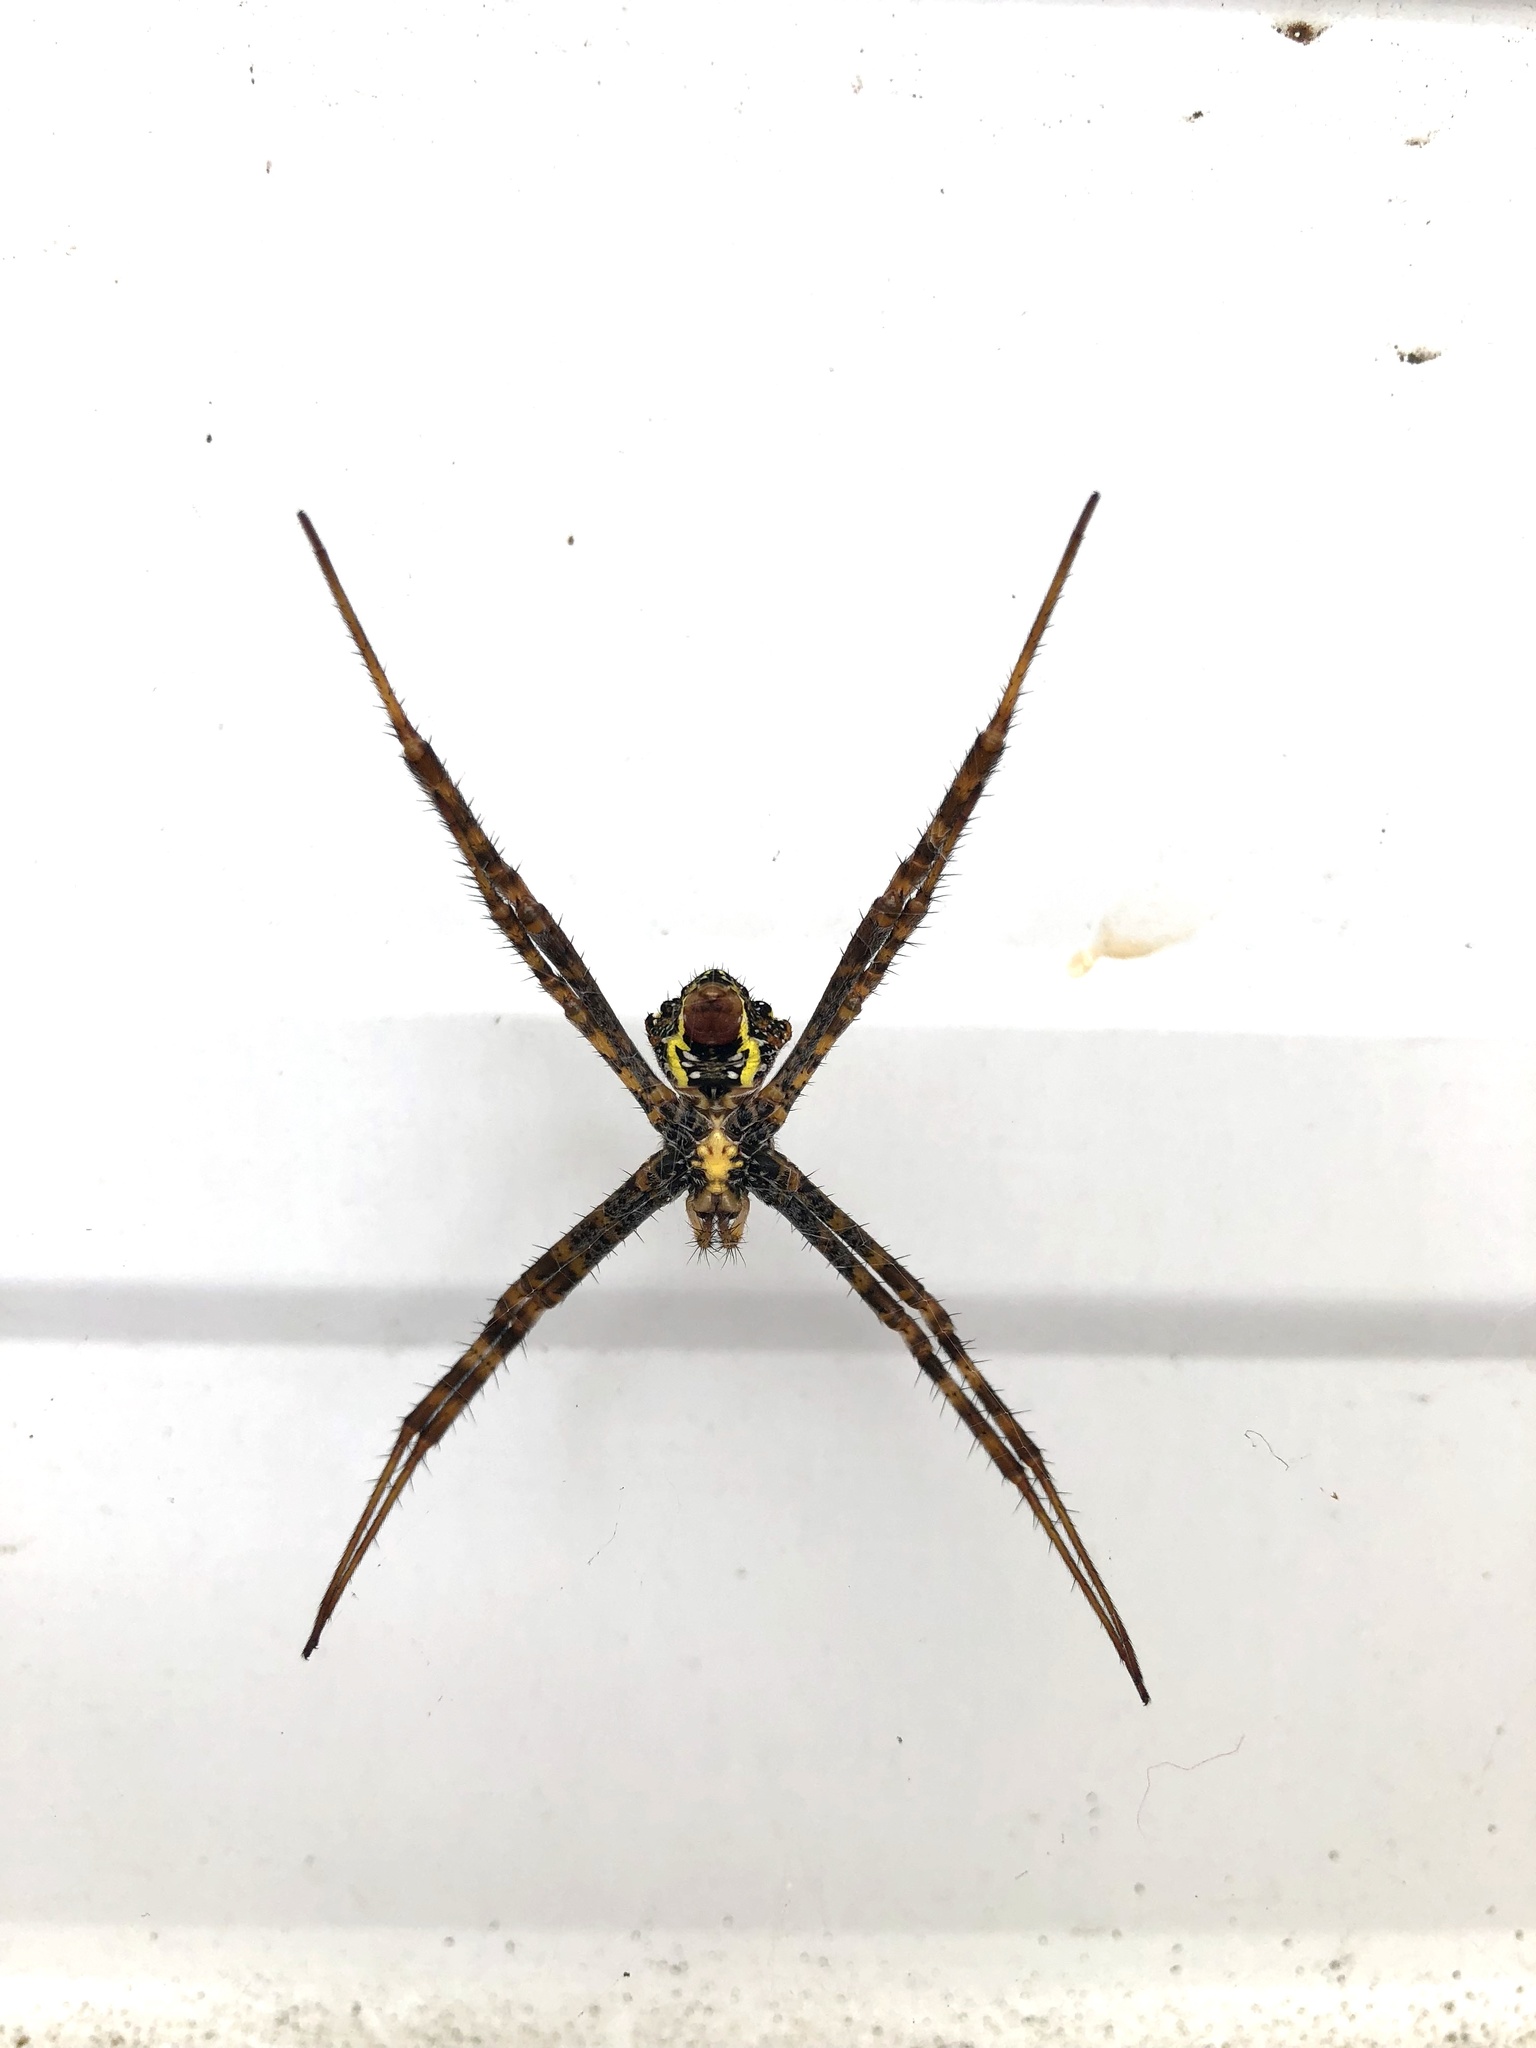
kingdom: Animalia
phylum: Arthropoda
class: Arachnida
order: Araneae
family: Araneidae
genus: Argiope
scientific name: Argiope aetheroides
